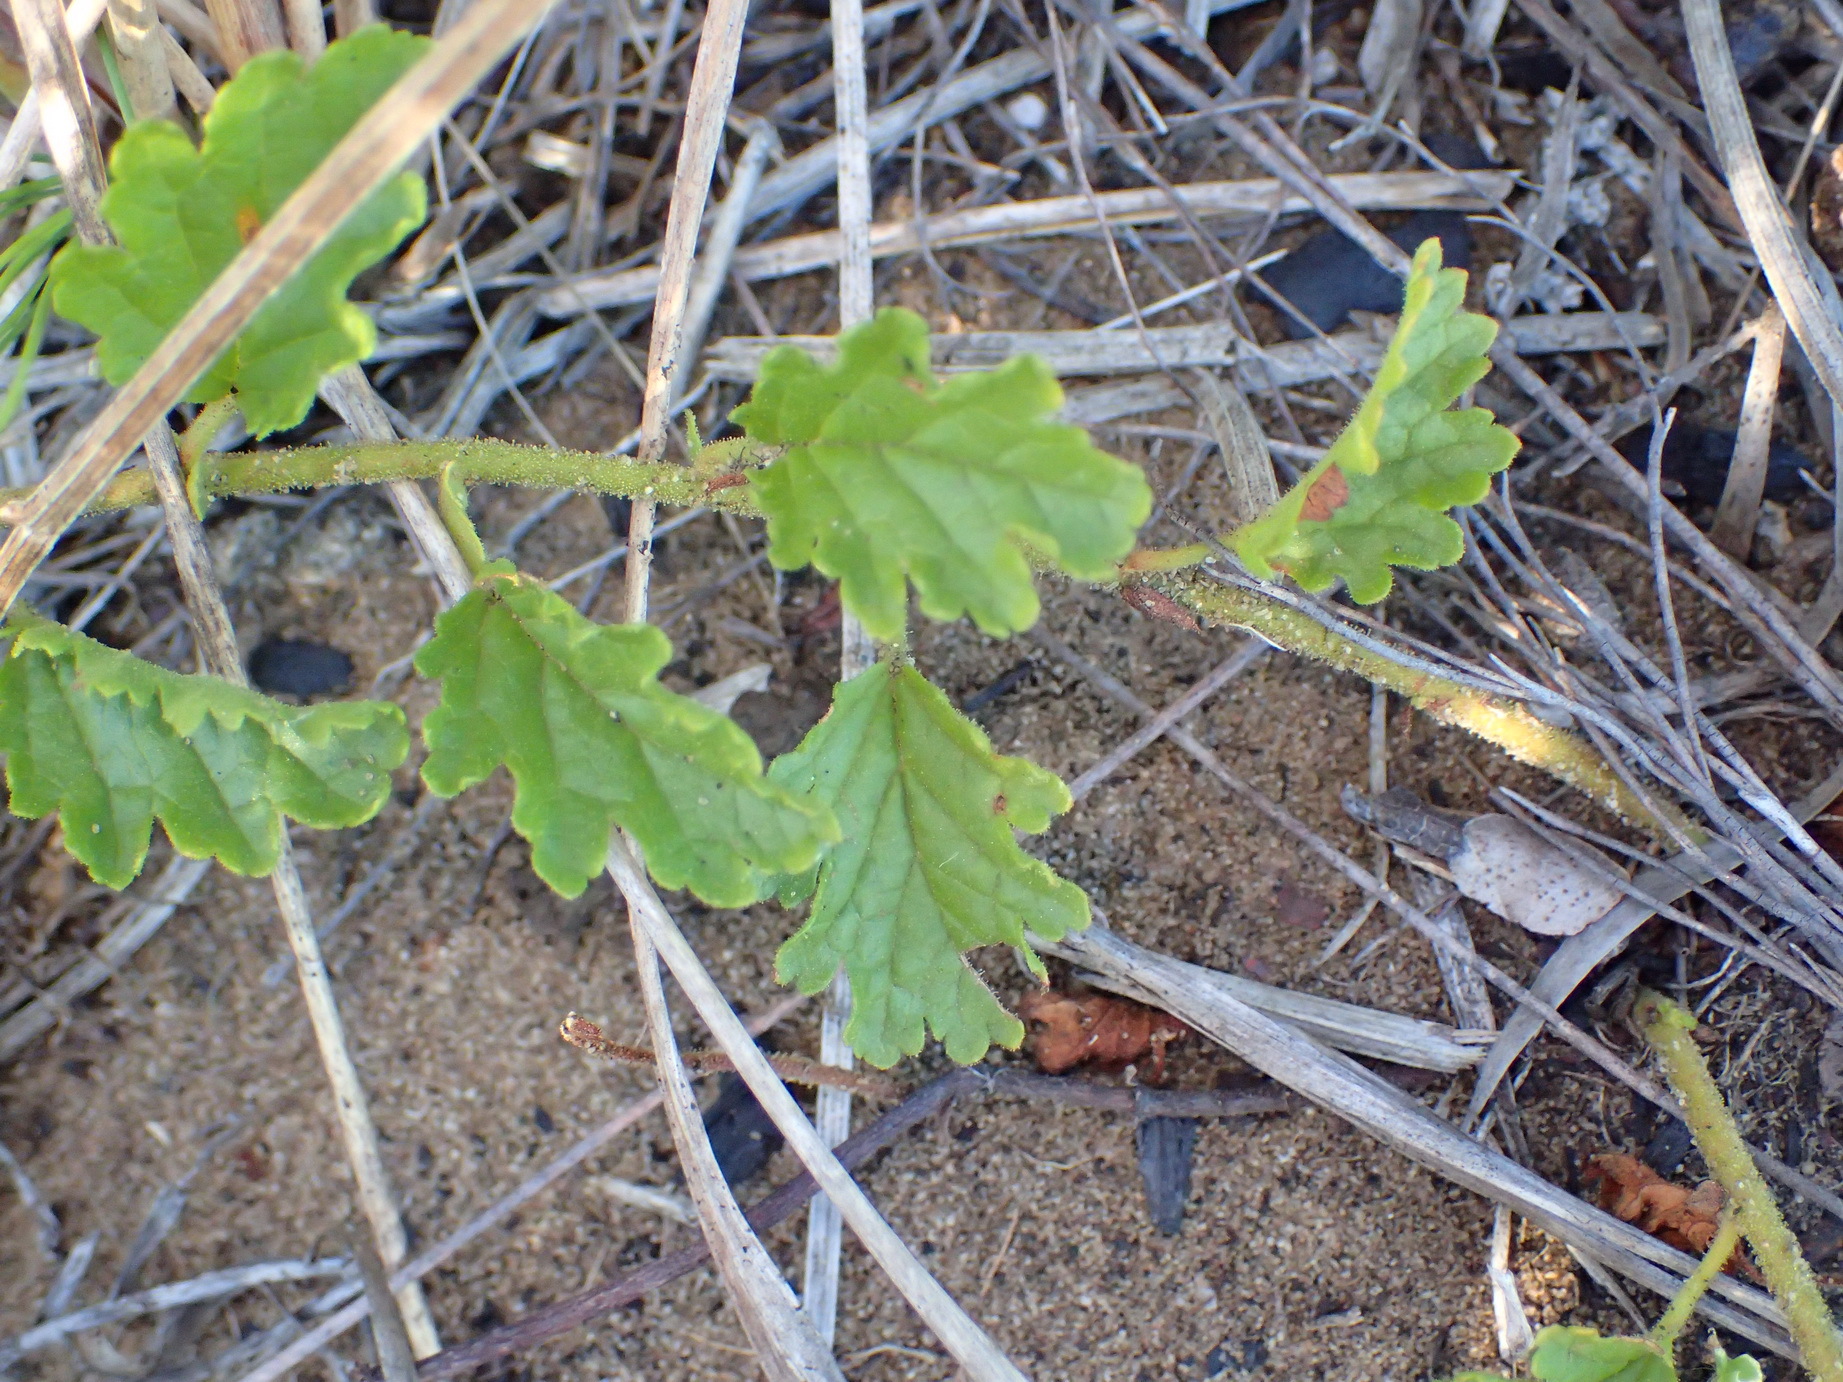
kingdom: Plantae
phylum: Tracheophyta
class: Magnoliopsida
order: Malvales
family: Malvaceae
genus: Hermannia
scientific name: Hermannia diffusa
